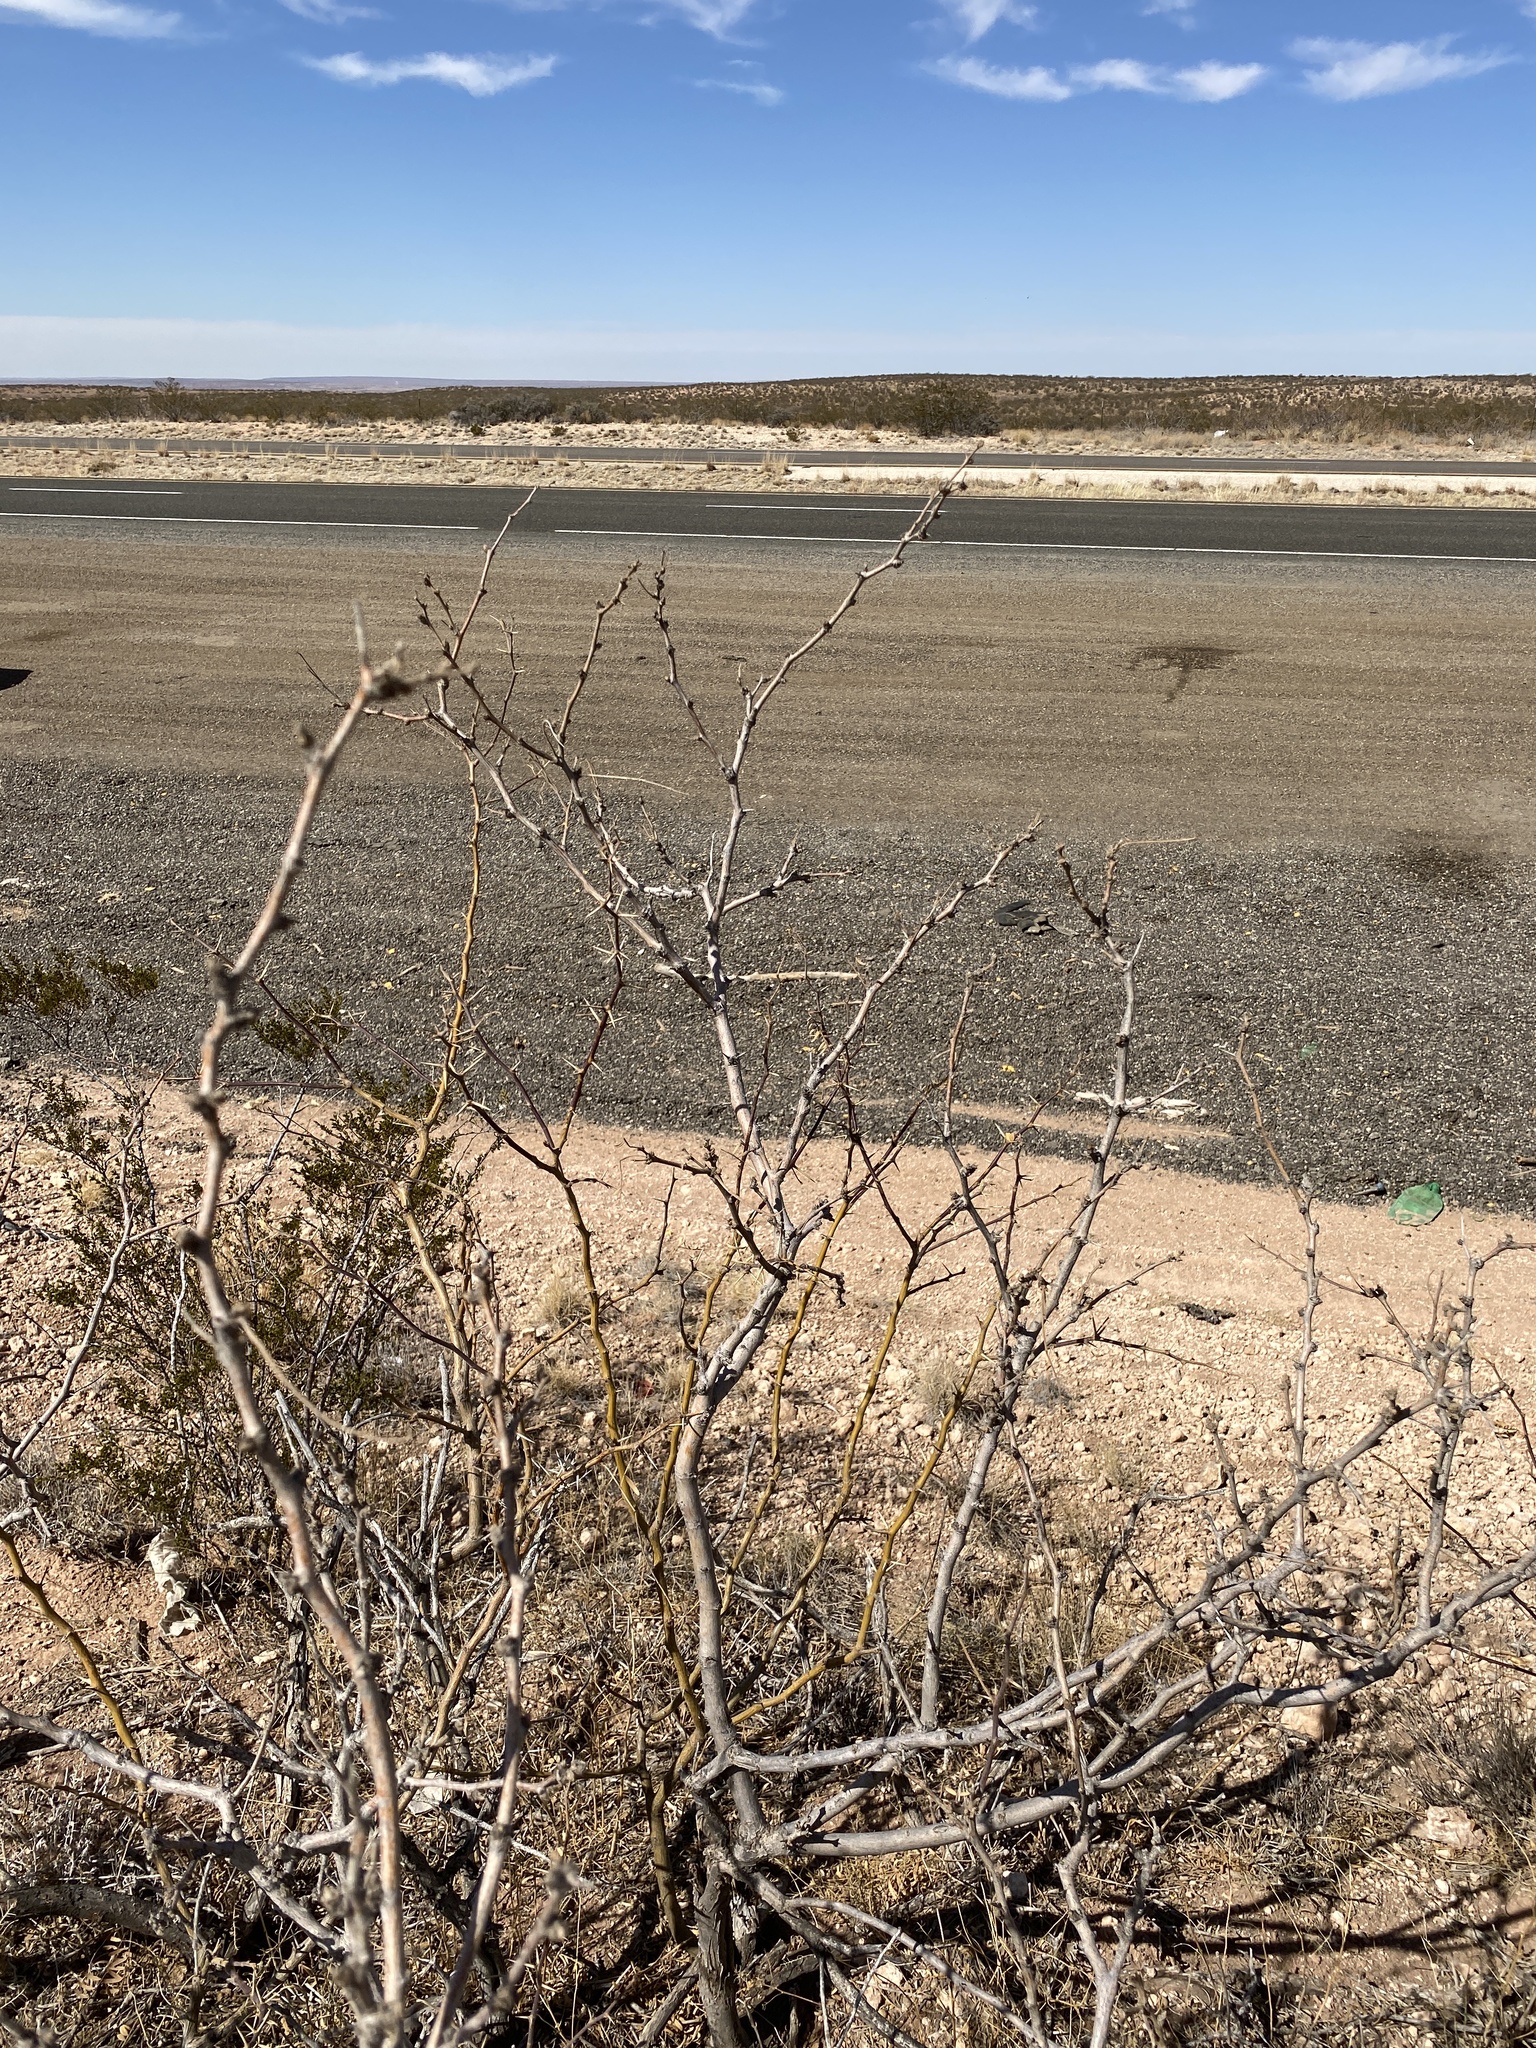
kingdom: Plantae
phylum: Tracheophyta
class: Magnoliopsida
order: Fabales
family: Fabaceae
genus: Prosopis
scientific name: Prosopis glandulosa
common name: Honey mesquite
